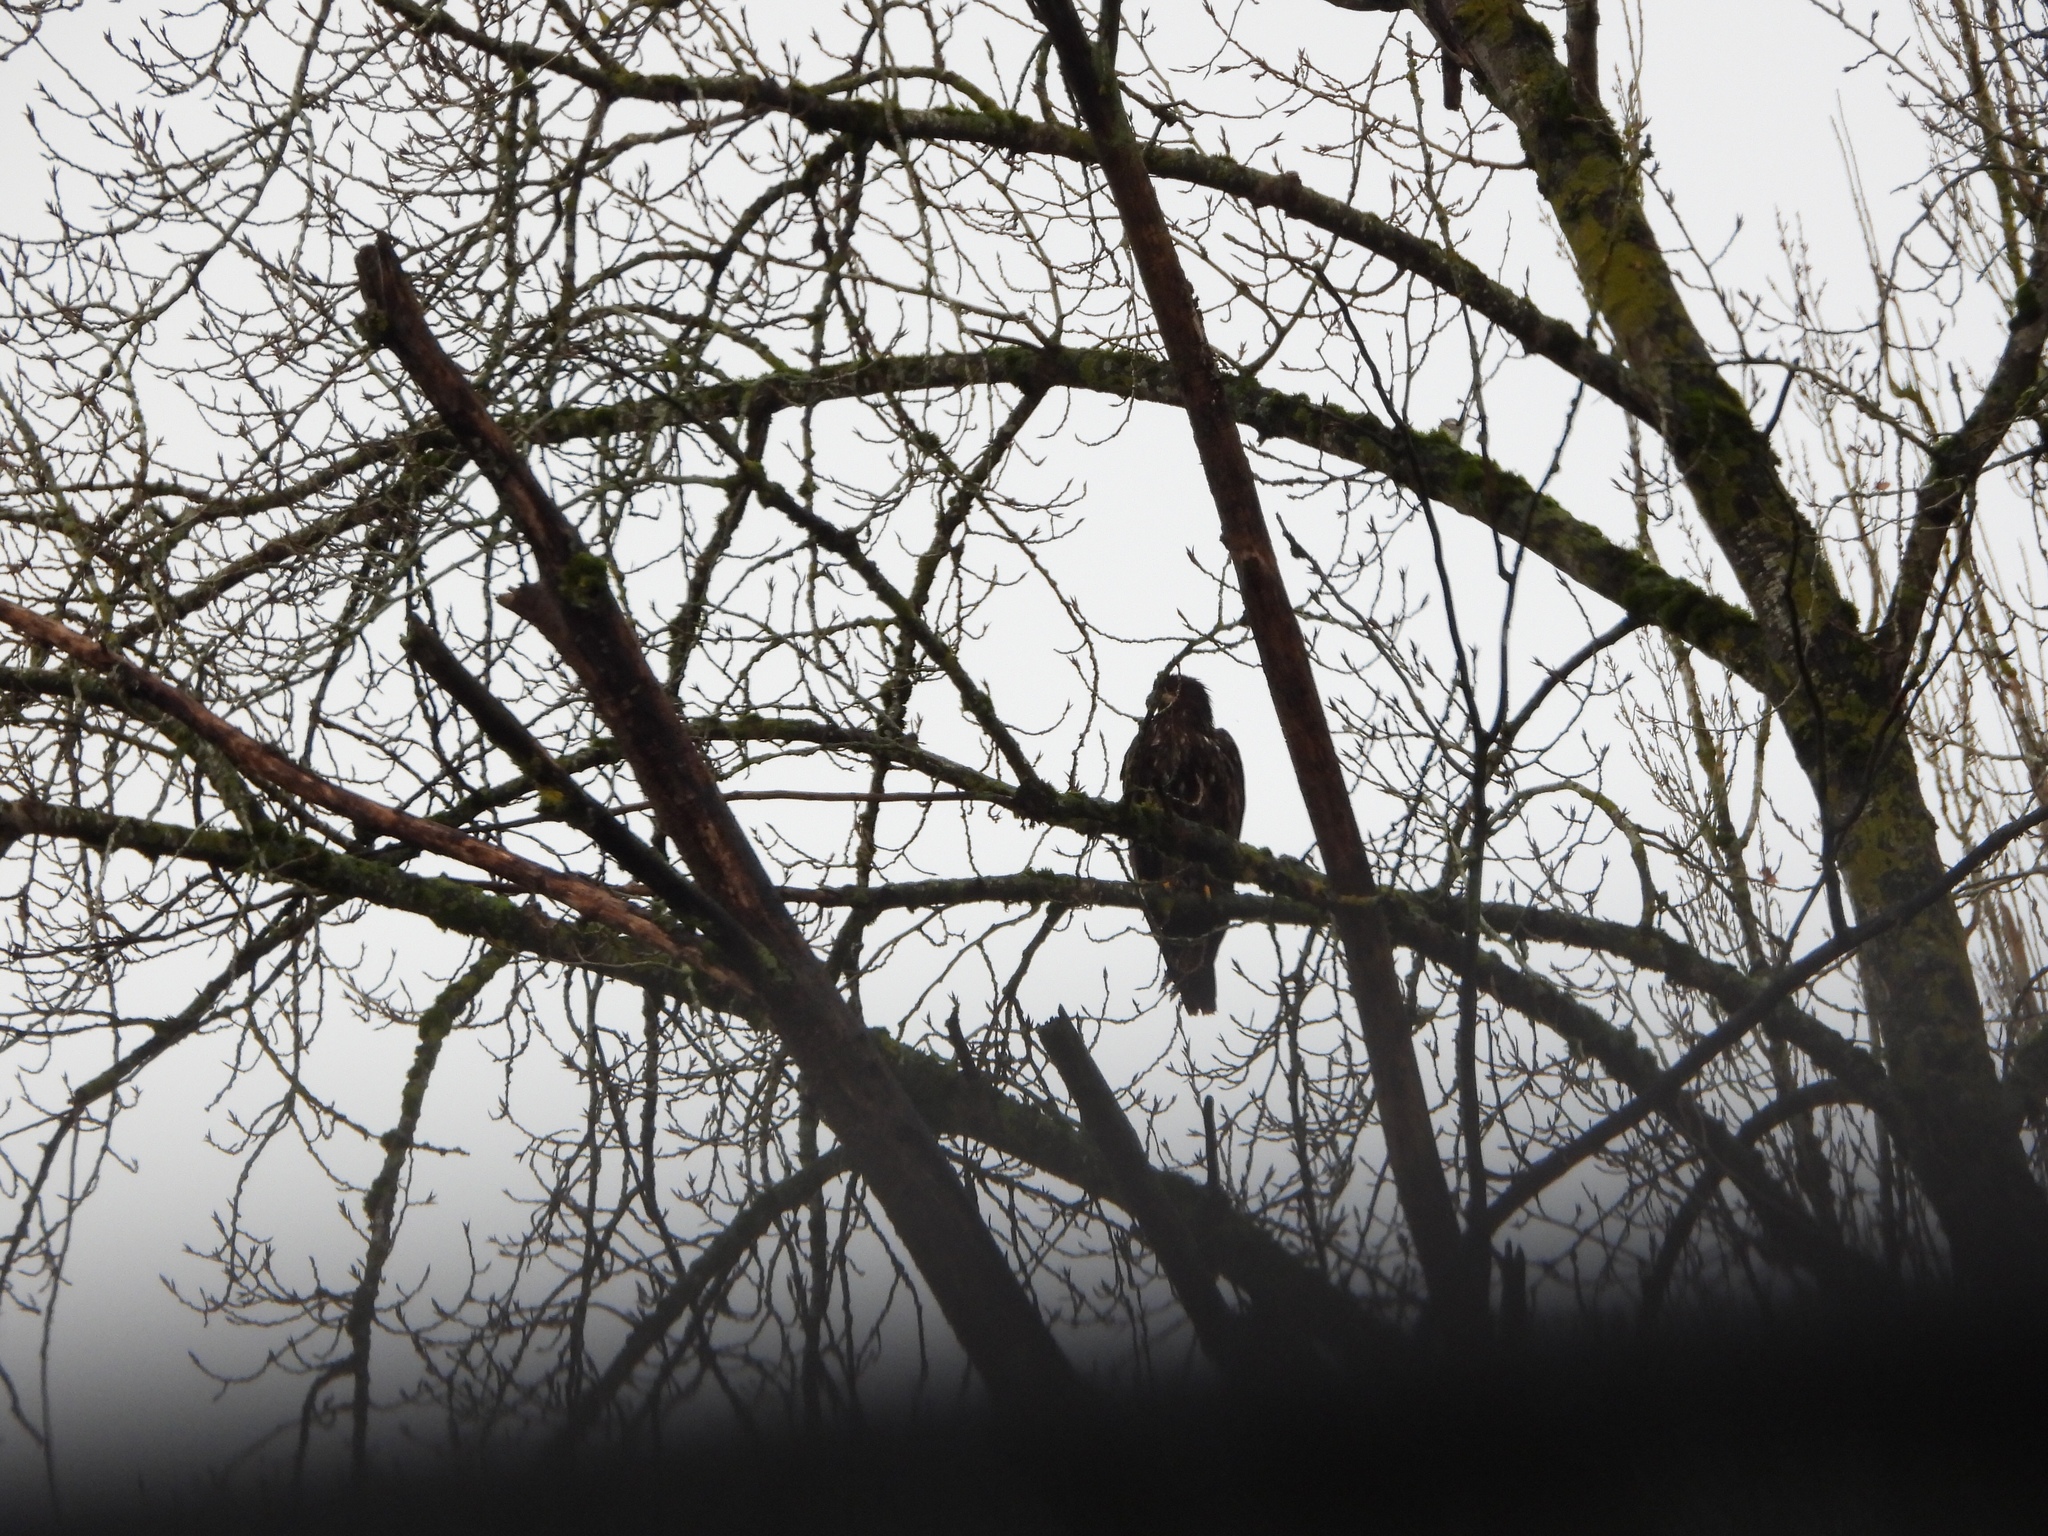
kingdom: Animalia
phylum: Chordata
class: Aves
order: Accipitriformes
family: Accipitridae
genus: Haliaeetus
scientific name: Haliaeetus leucocephalus
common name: Bald eagle
